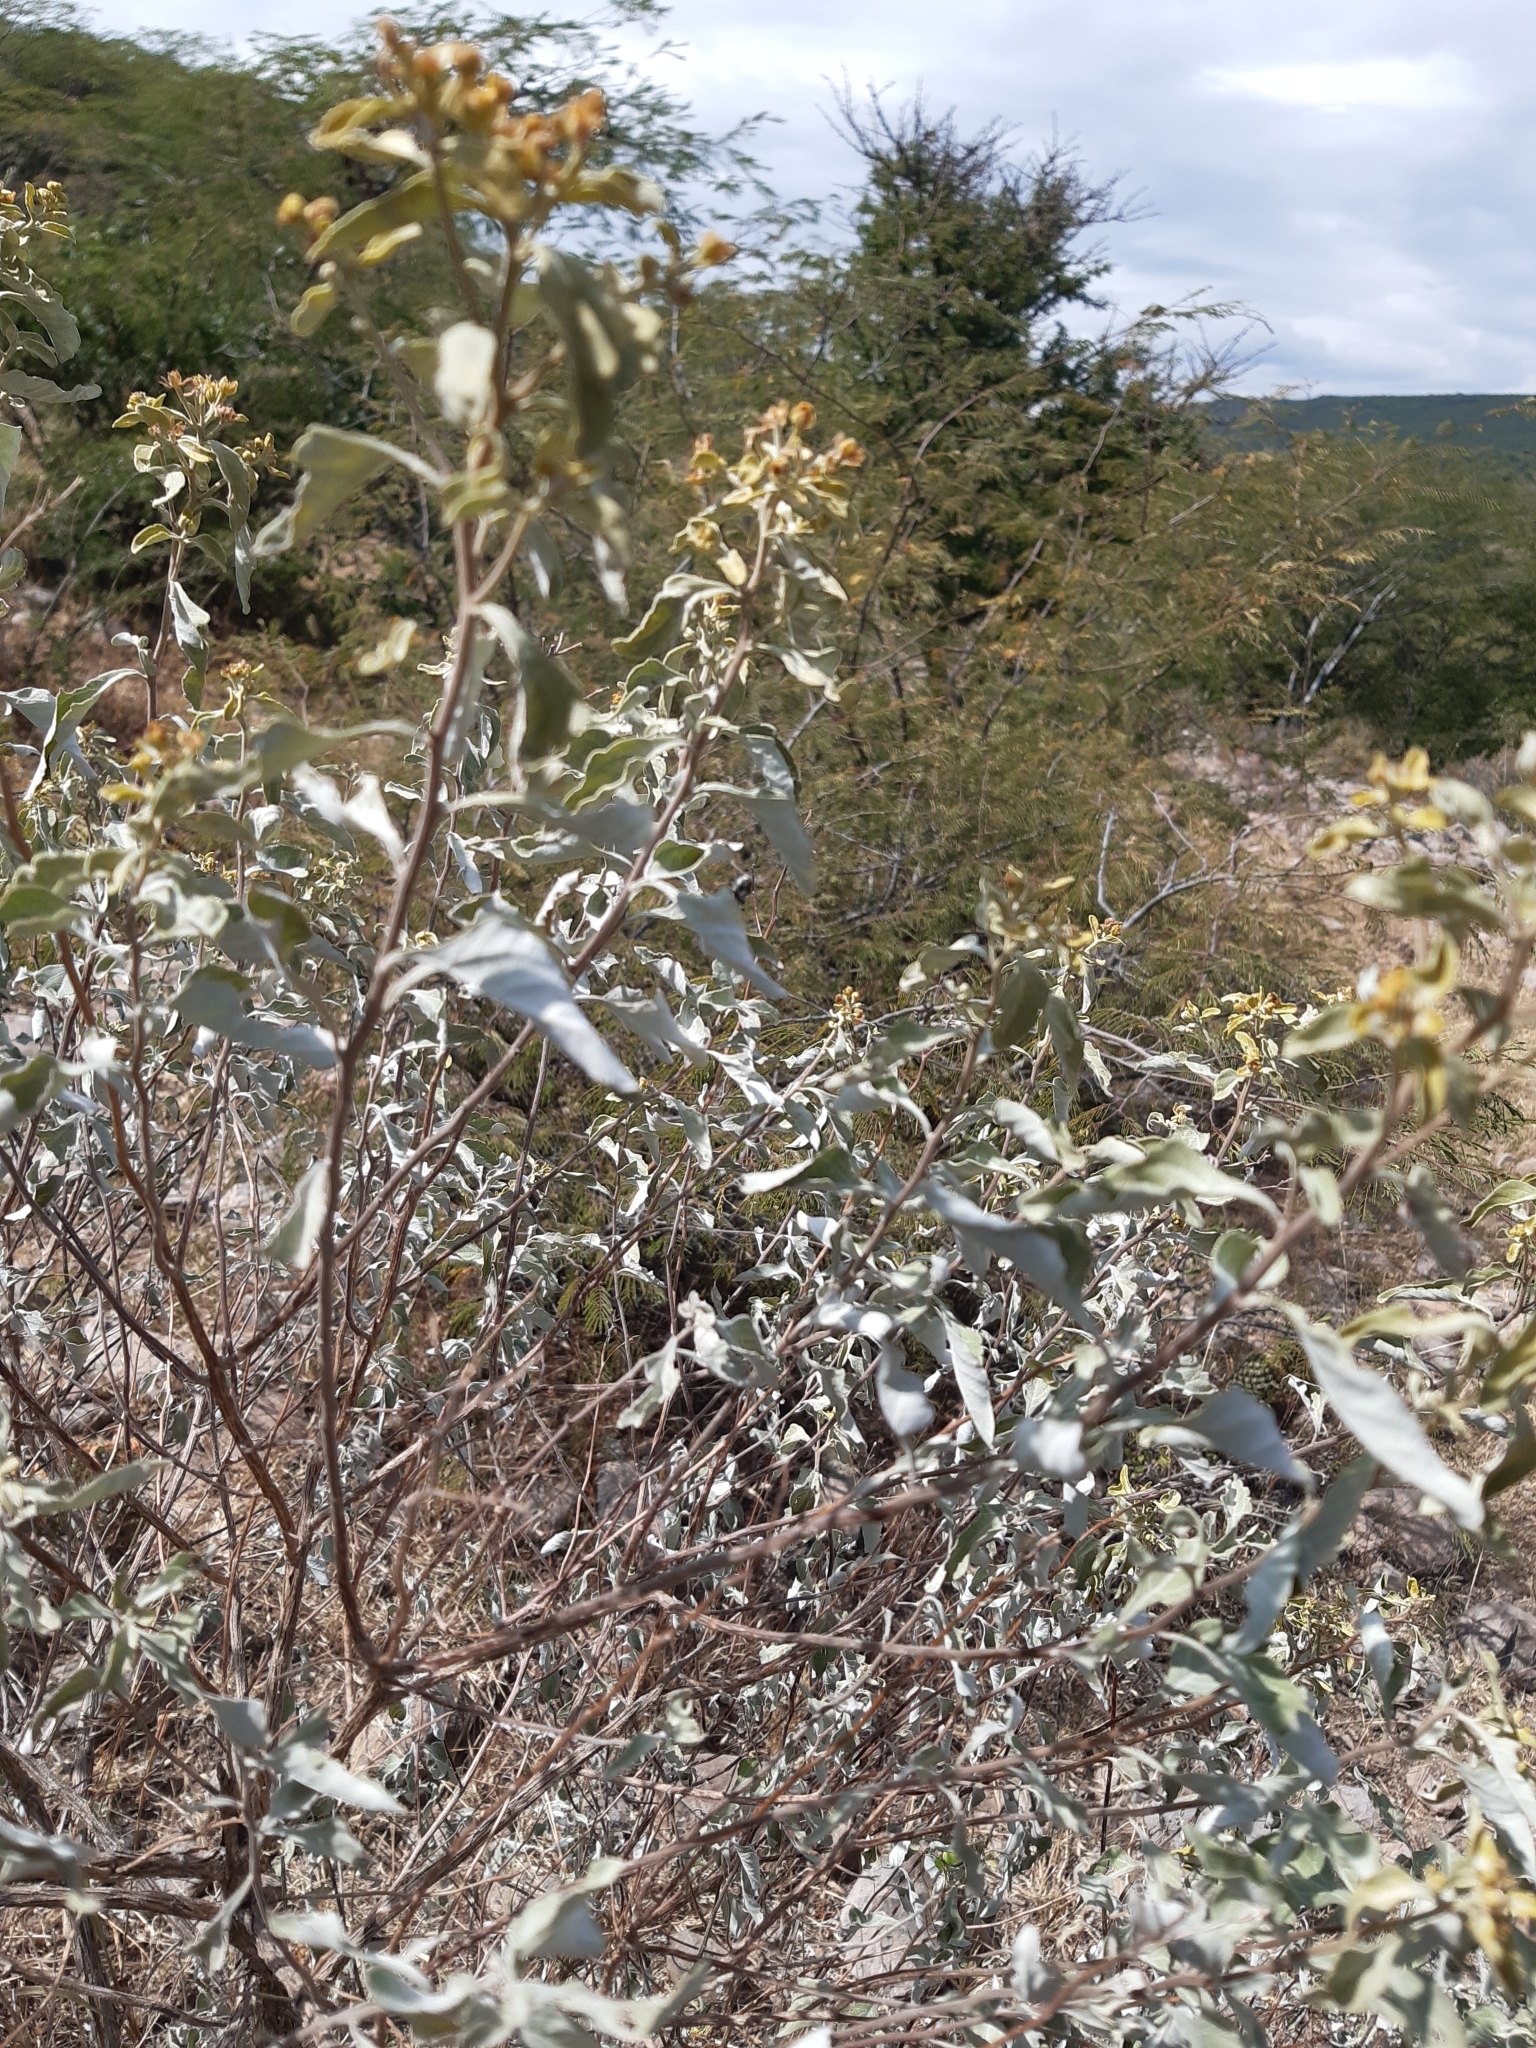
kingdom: Plantae
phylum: Tracheophyta
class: Magnoliopsida
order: Asterales
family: Asteraceae
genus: Zaluzania
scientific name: Zaluzania augusta
